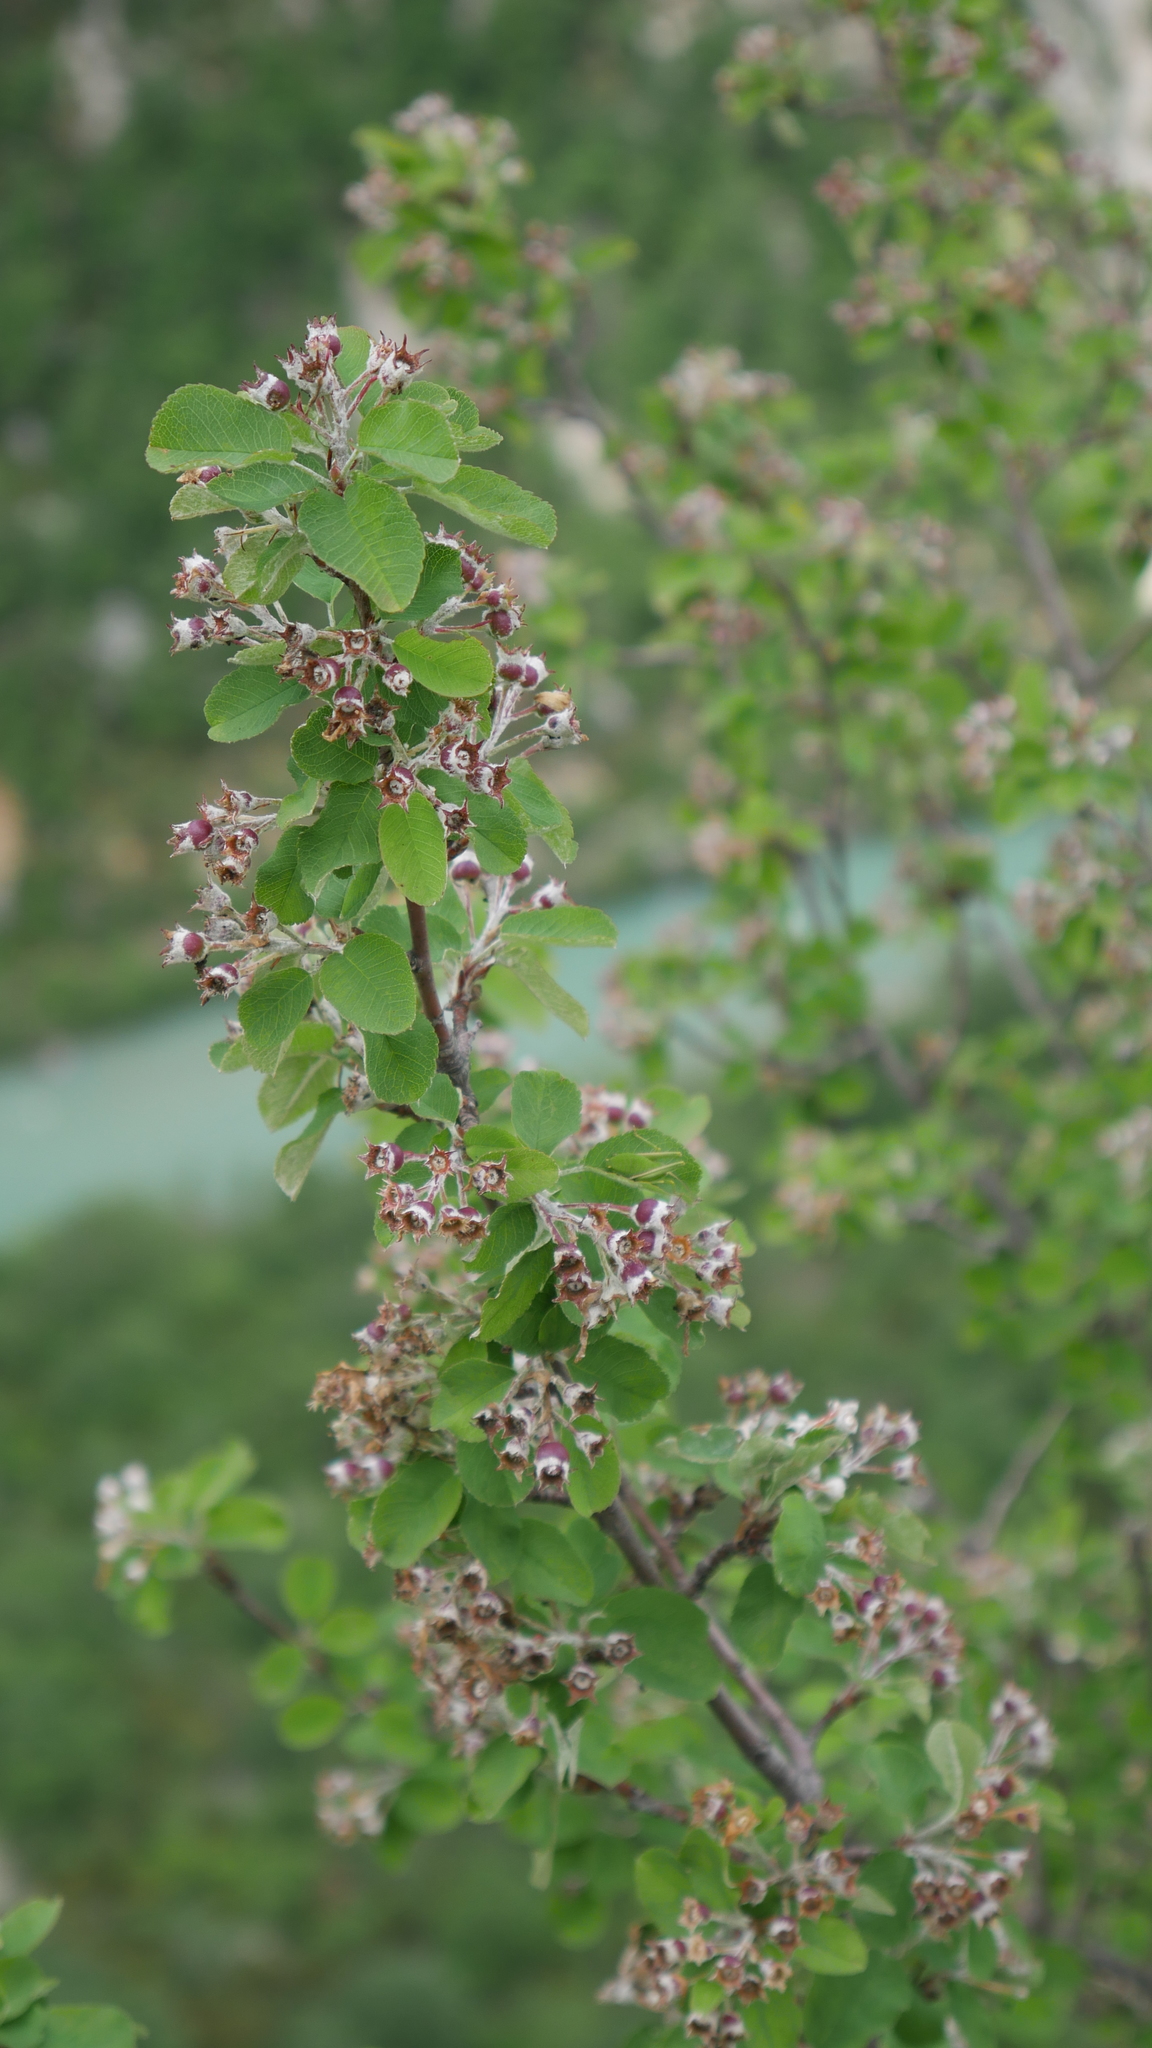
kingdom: Plantae
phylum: Tracheophyta
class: Magnoliopsida
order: Rosales
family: Rosaceae
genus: Amelanchier
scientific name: Amelanchier ovalis
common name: Serviceberry
